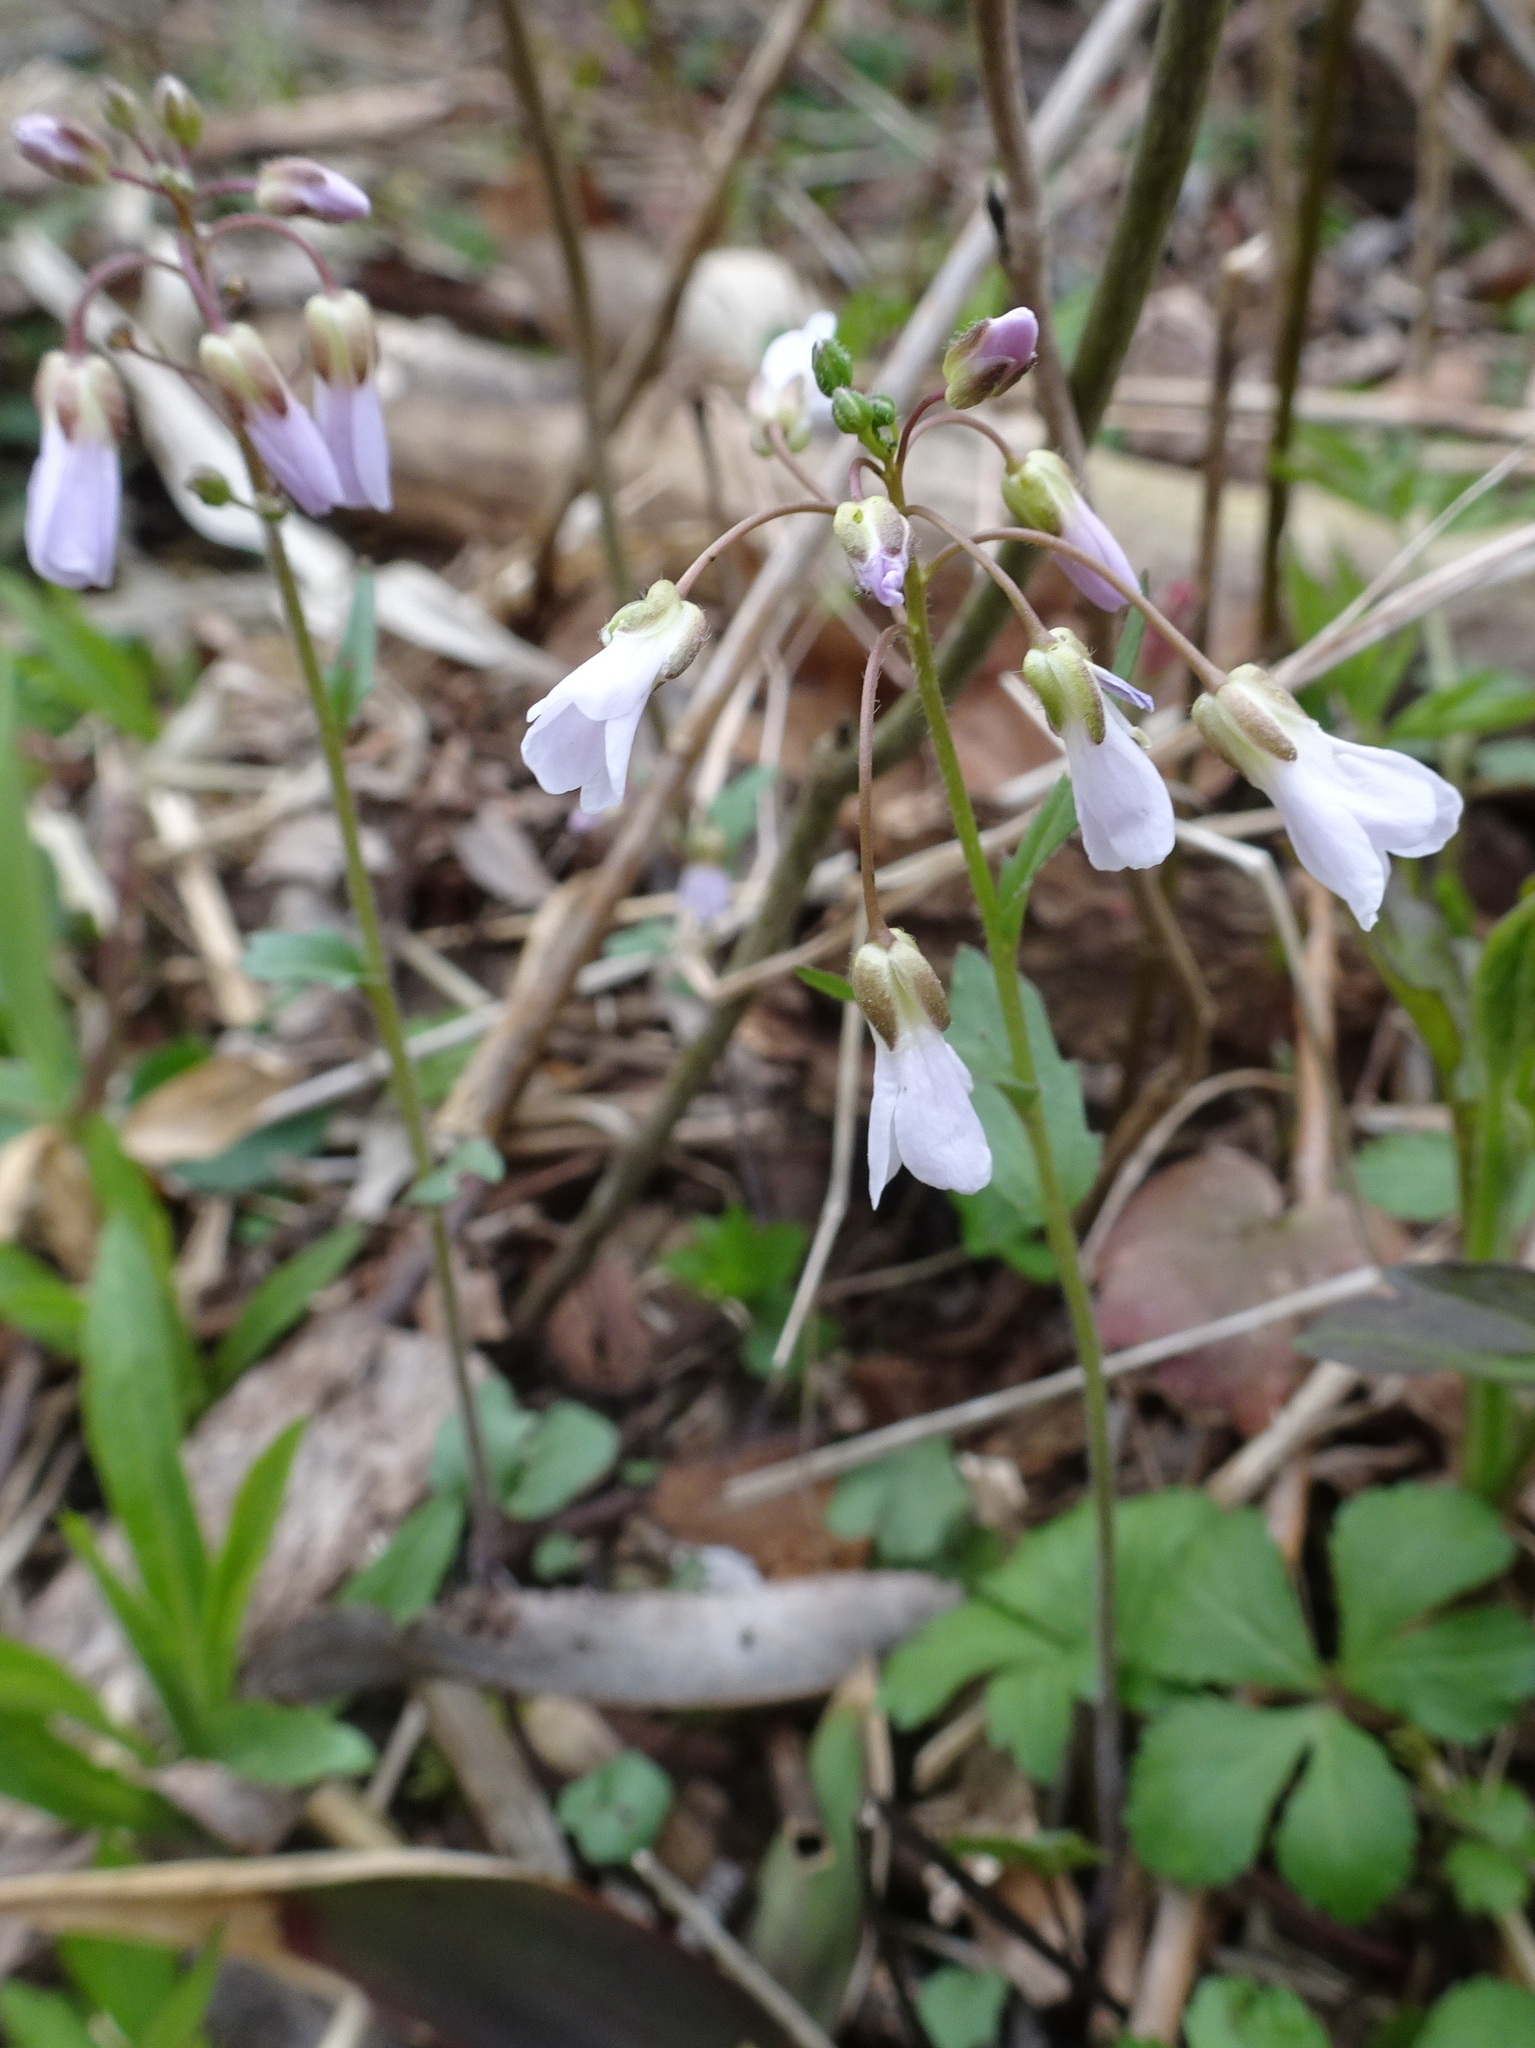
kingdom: Plantae
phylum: Tracheophyta
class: Magnoliopsida
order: Brassicales
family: Brassicaceae
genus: Cardamine
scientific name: Cardamine douglassii
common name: Purple cress
